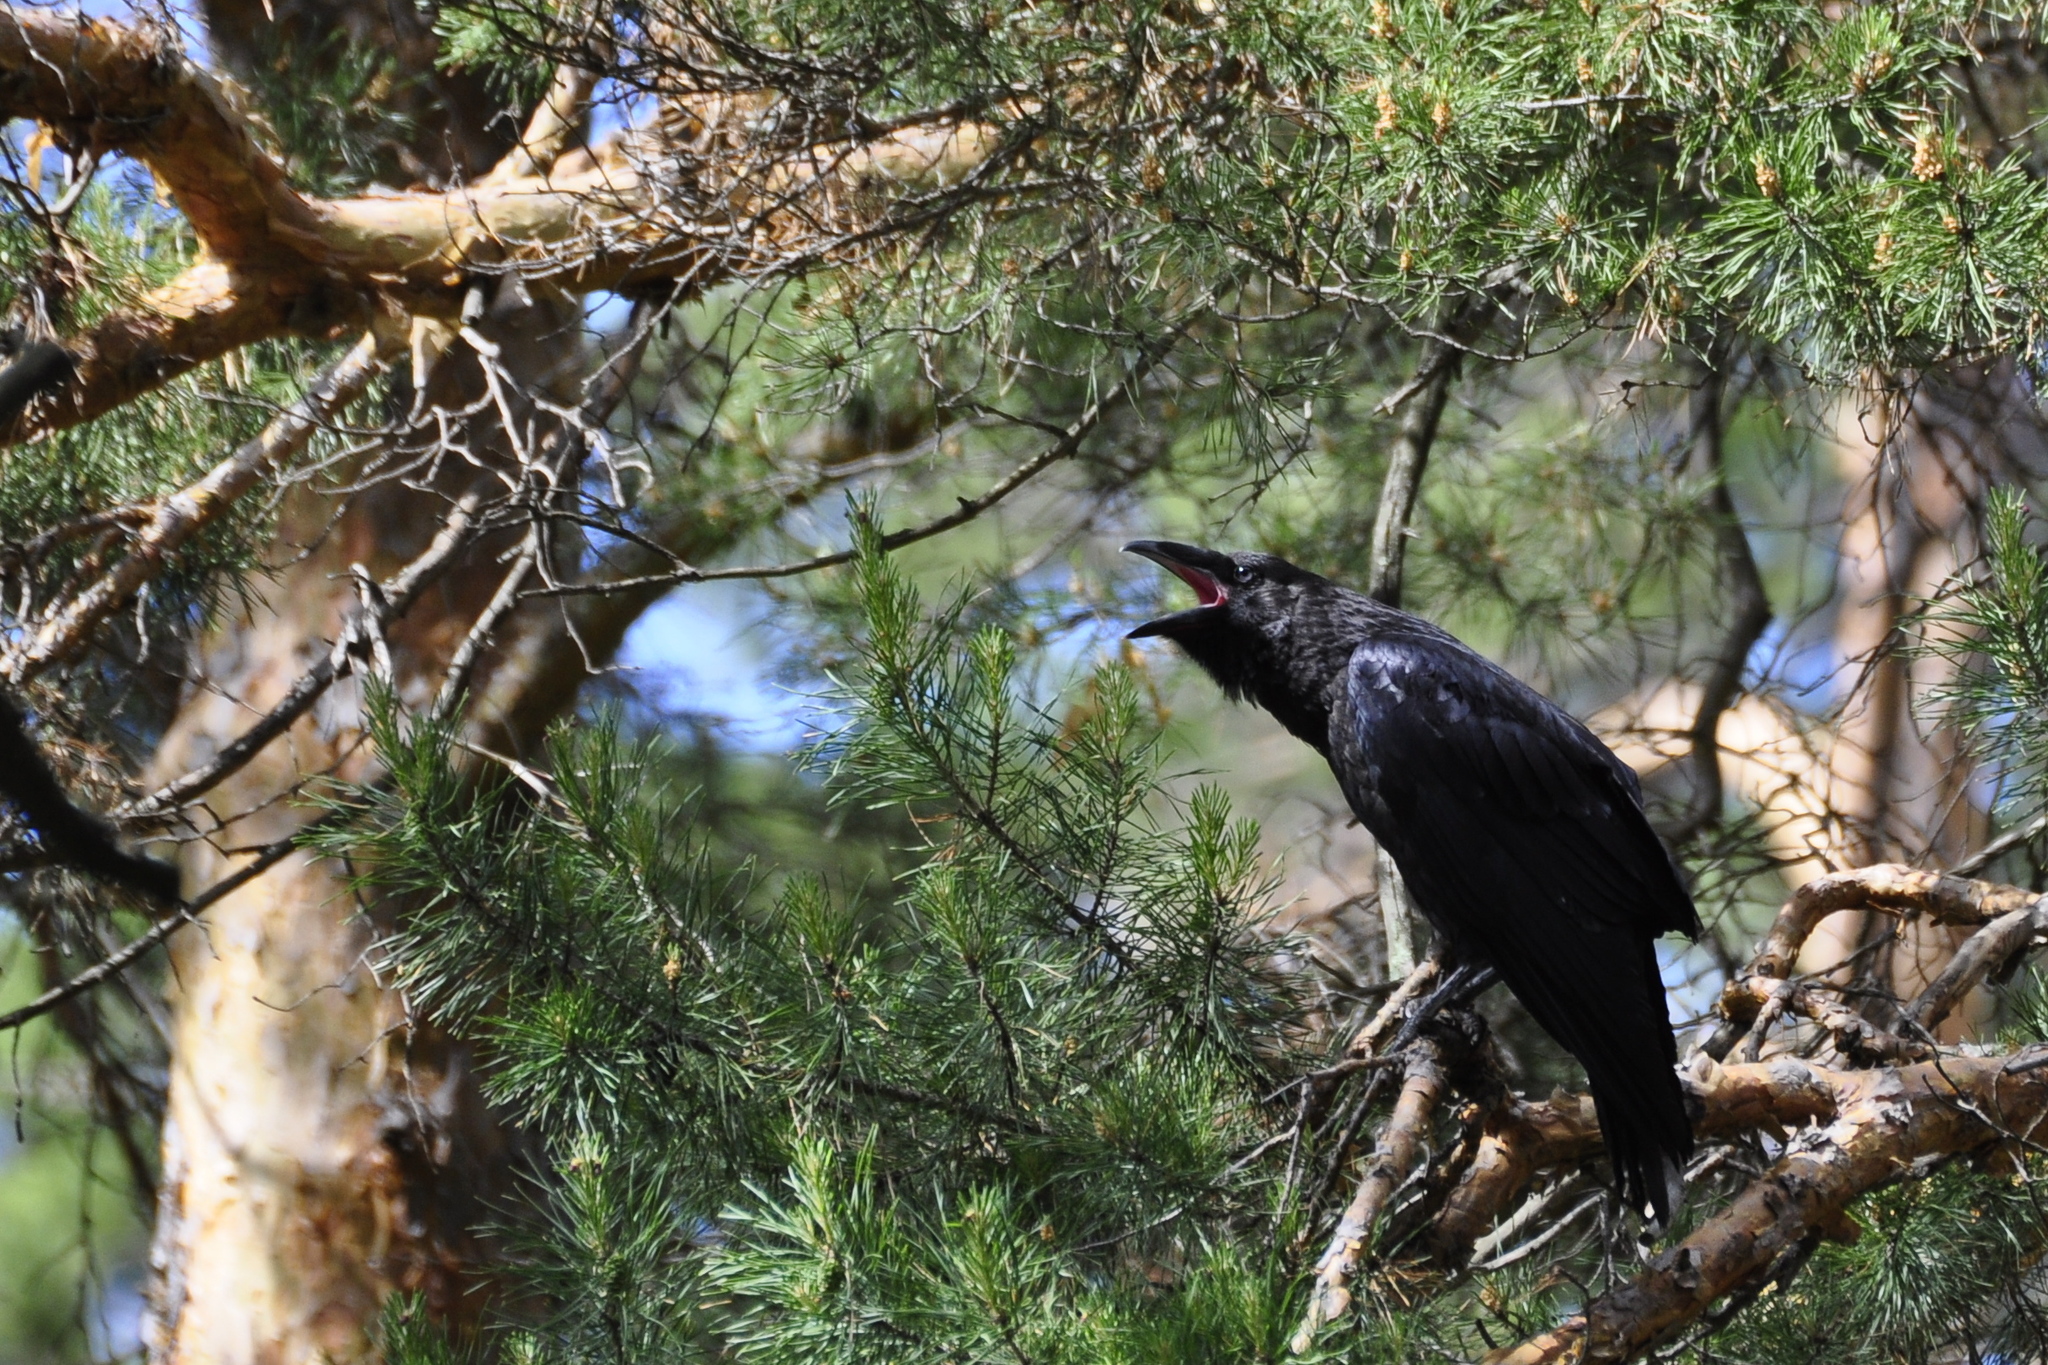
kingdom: Animalia
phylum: Chordata
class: Aves
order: Passeriformes
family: Corvidae
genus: Corvus
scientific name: Corvus corax
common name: Common raven
